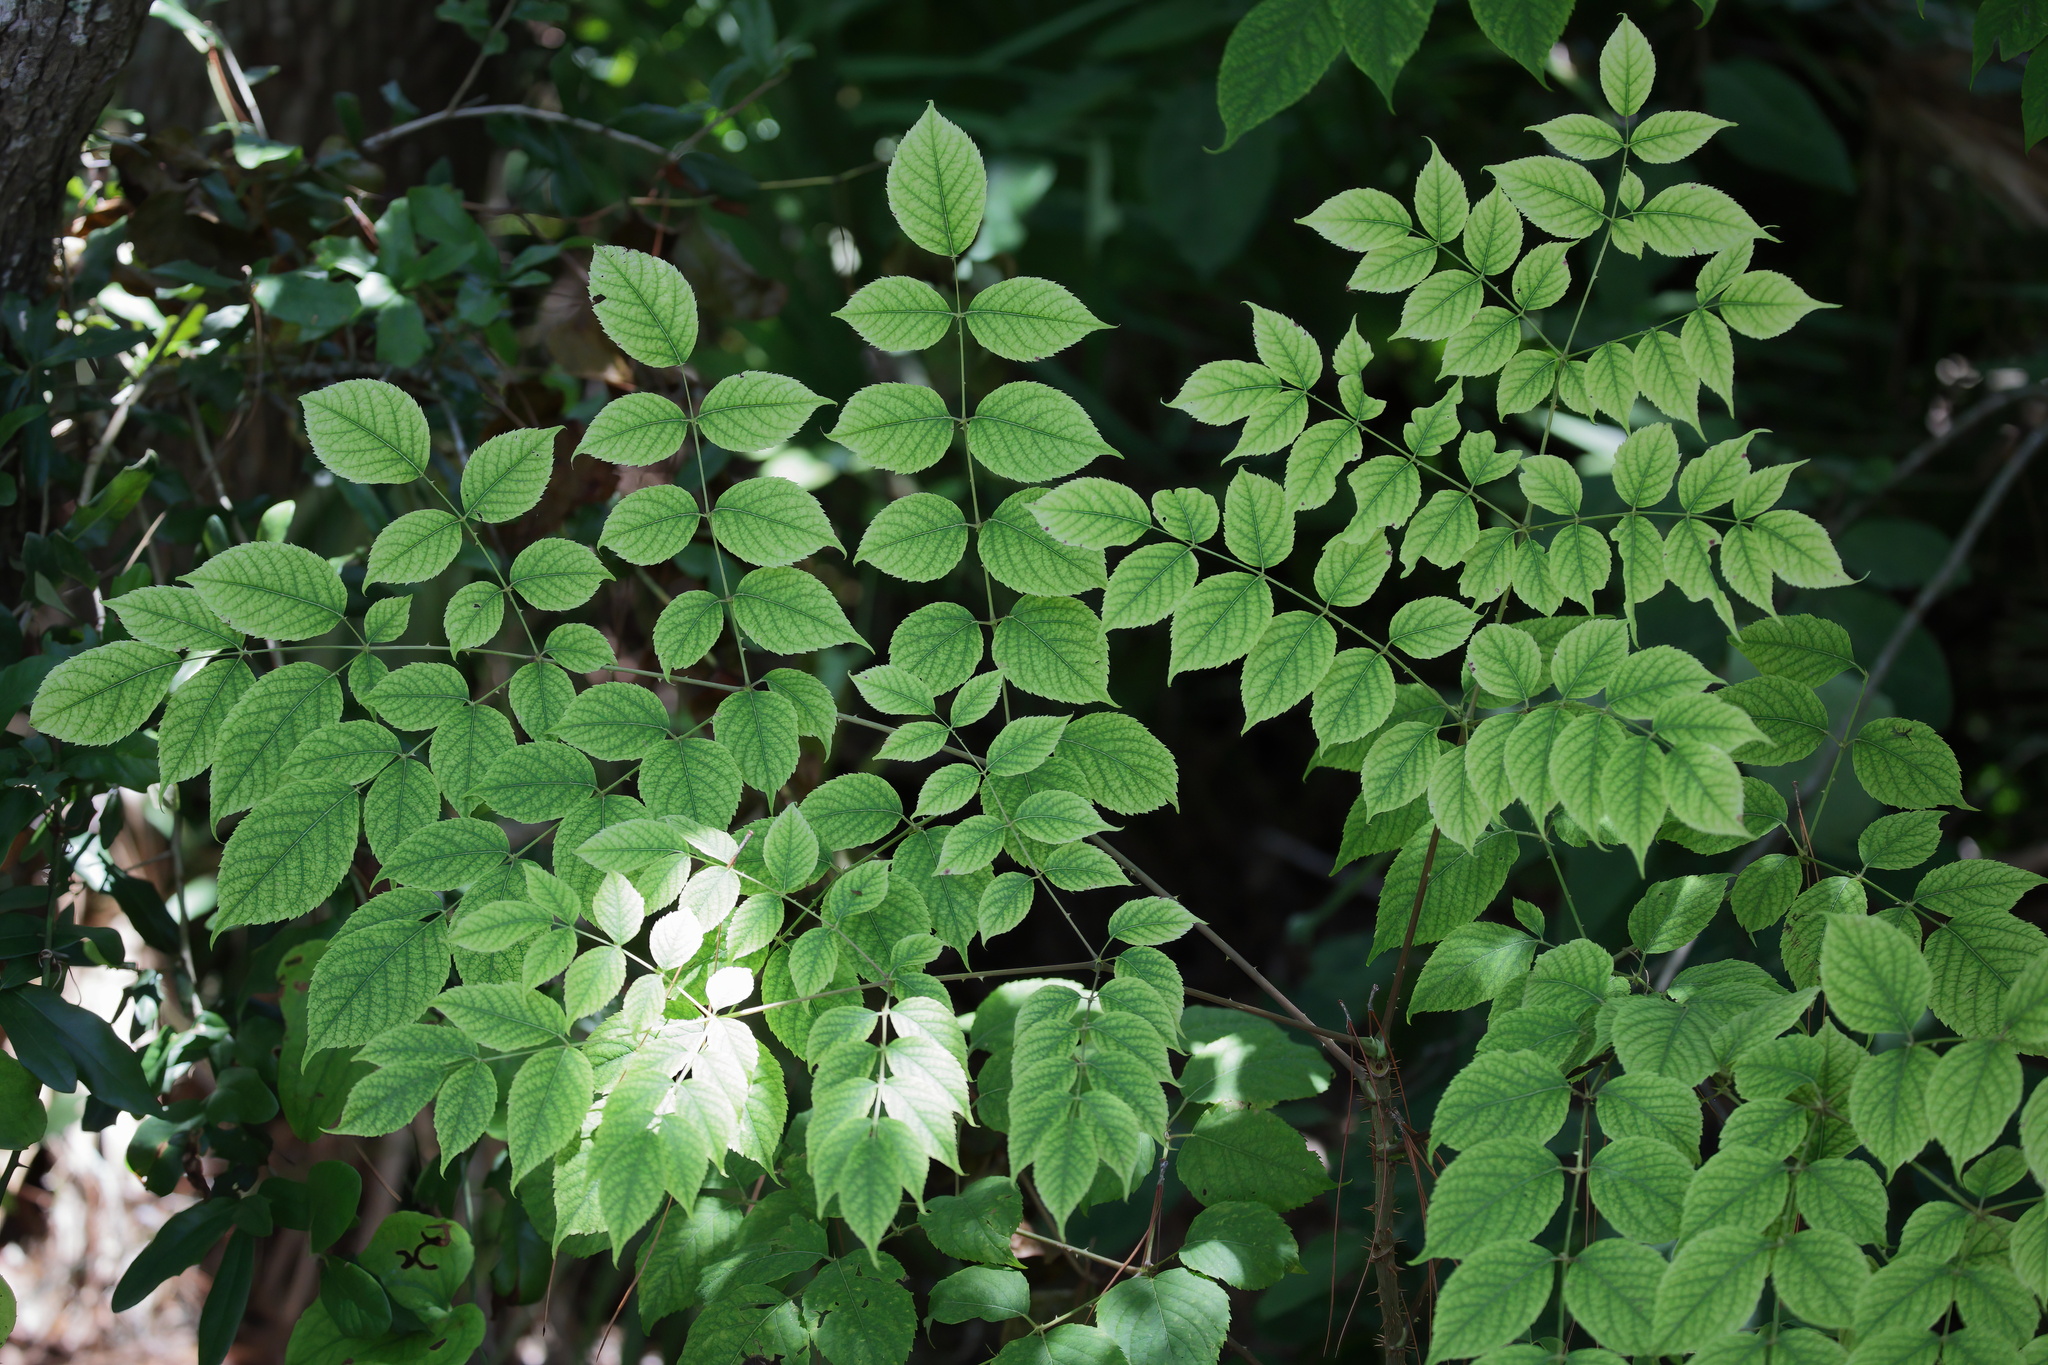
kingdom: Plantae
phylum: Tracheophyta
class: Magnoliopsida
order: Apiales
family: Araliaceae
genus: Aralia
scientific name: Aralia spinosa
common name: Hercules'-club
